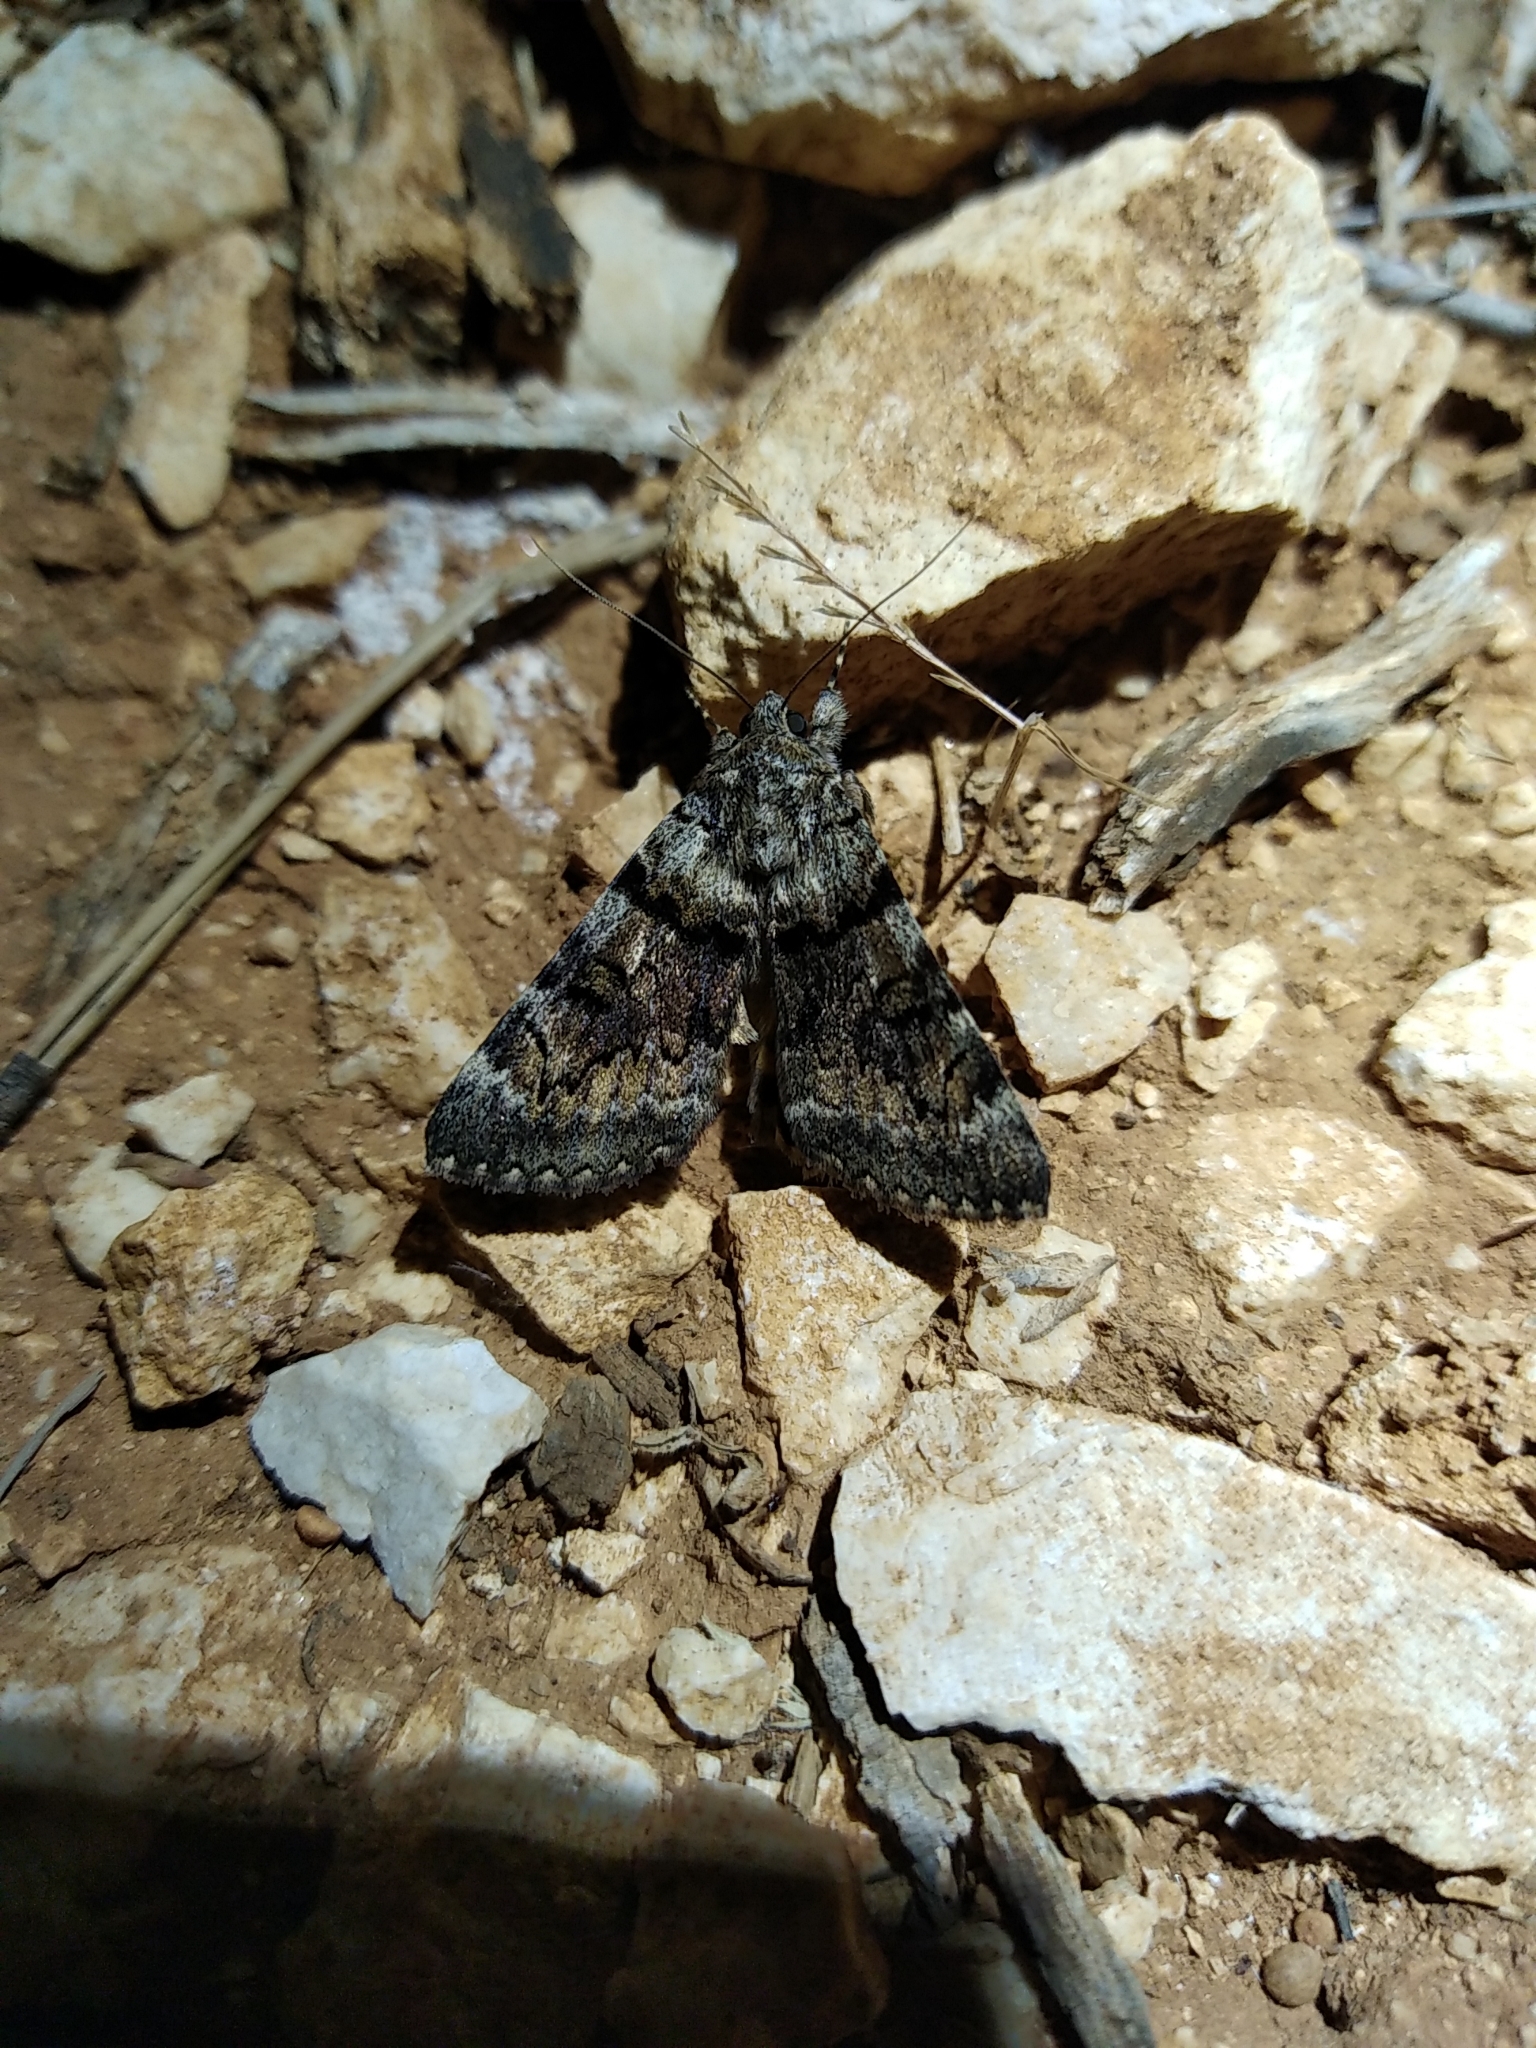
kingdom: Animalia
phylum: Arthropoda
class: Insecta
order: Lepidoptera
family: Erebidae
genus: Catocala
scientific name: Catocala nymphagoga
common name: Oak yellow underwing
